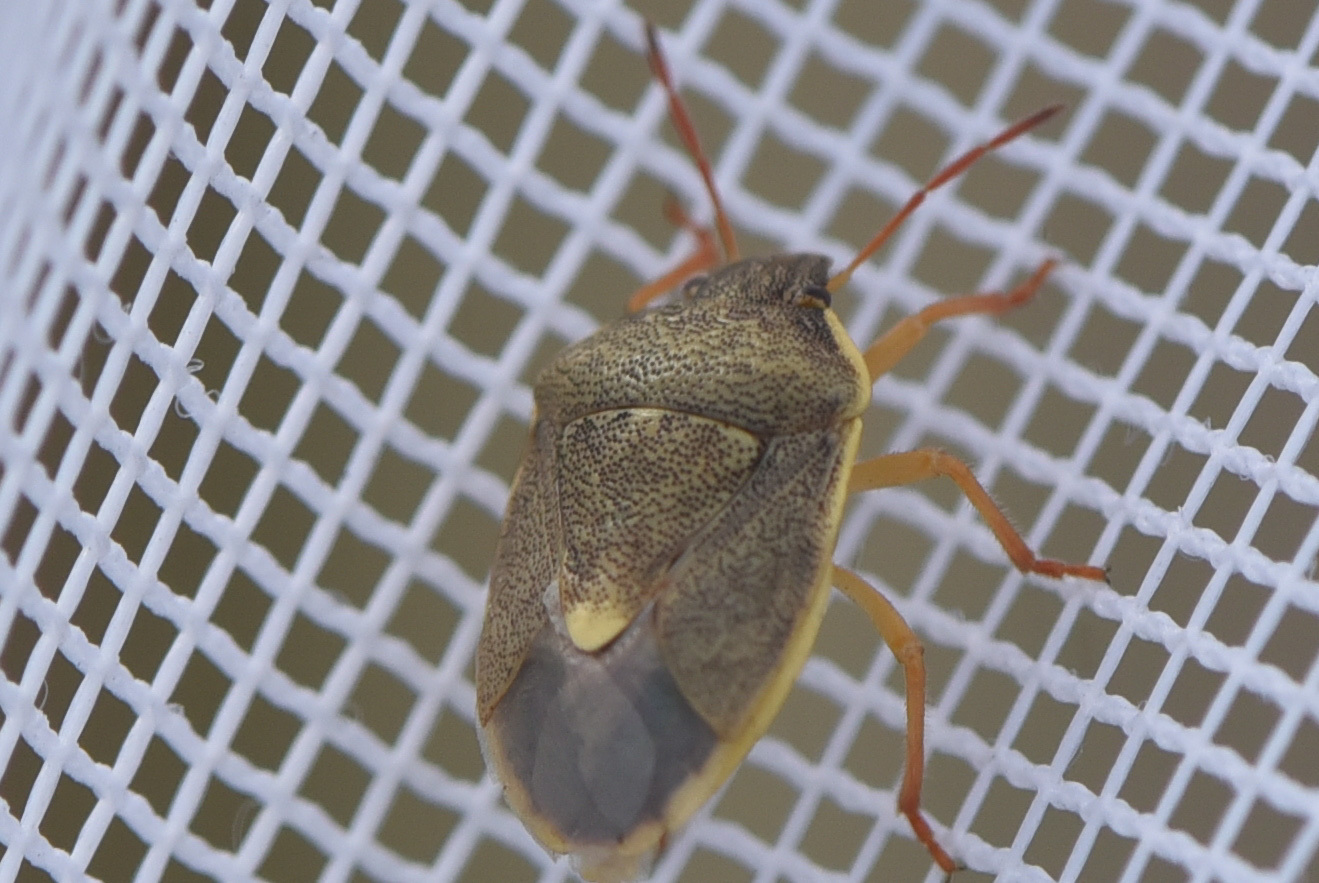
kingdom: Animalia
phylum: Arthropoda
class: Insecta
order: Hemiptera
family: Pentatomidae
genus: Holcostethus
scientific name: Holcostethus limbolarius
